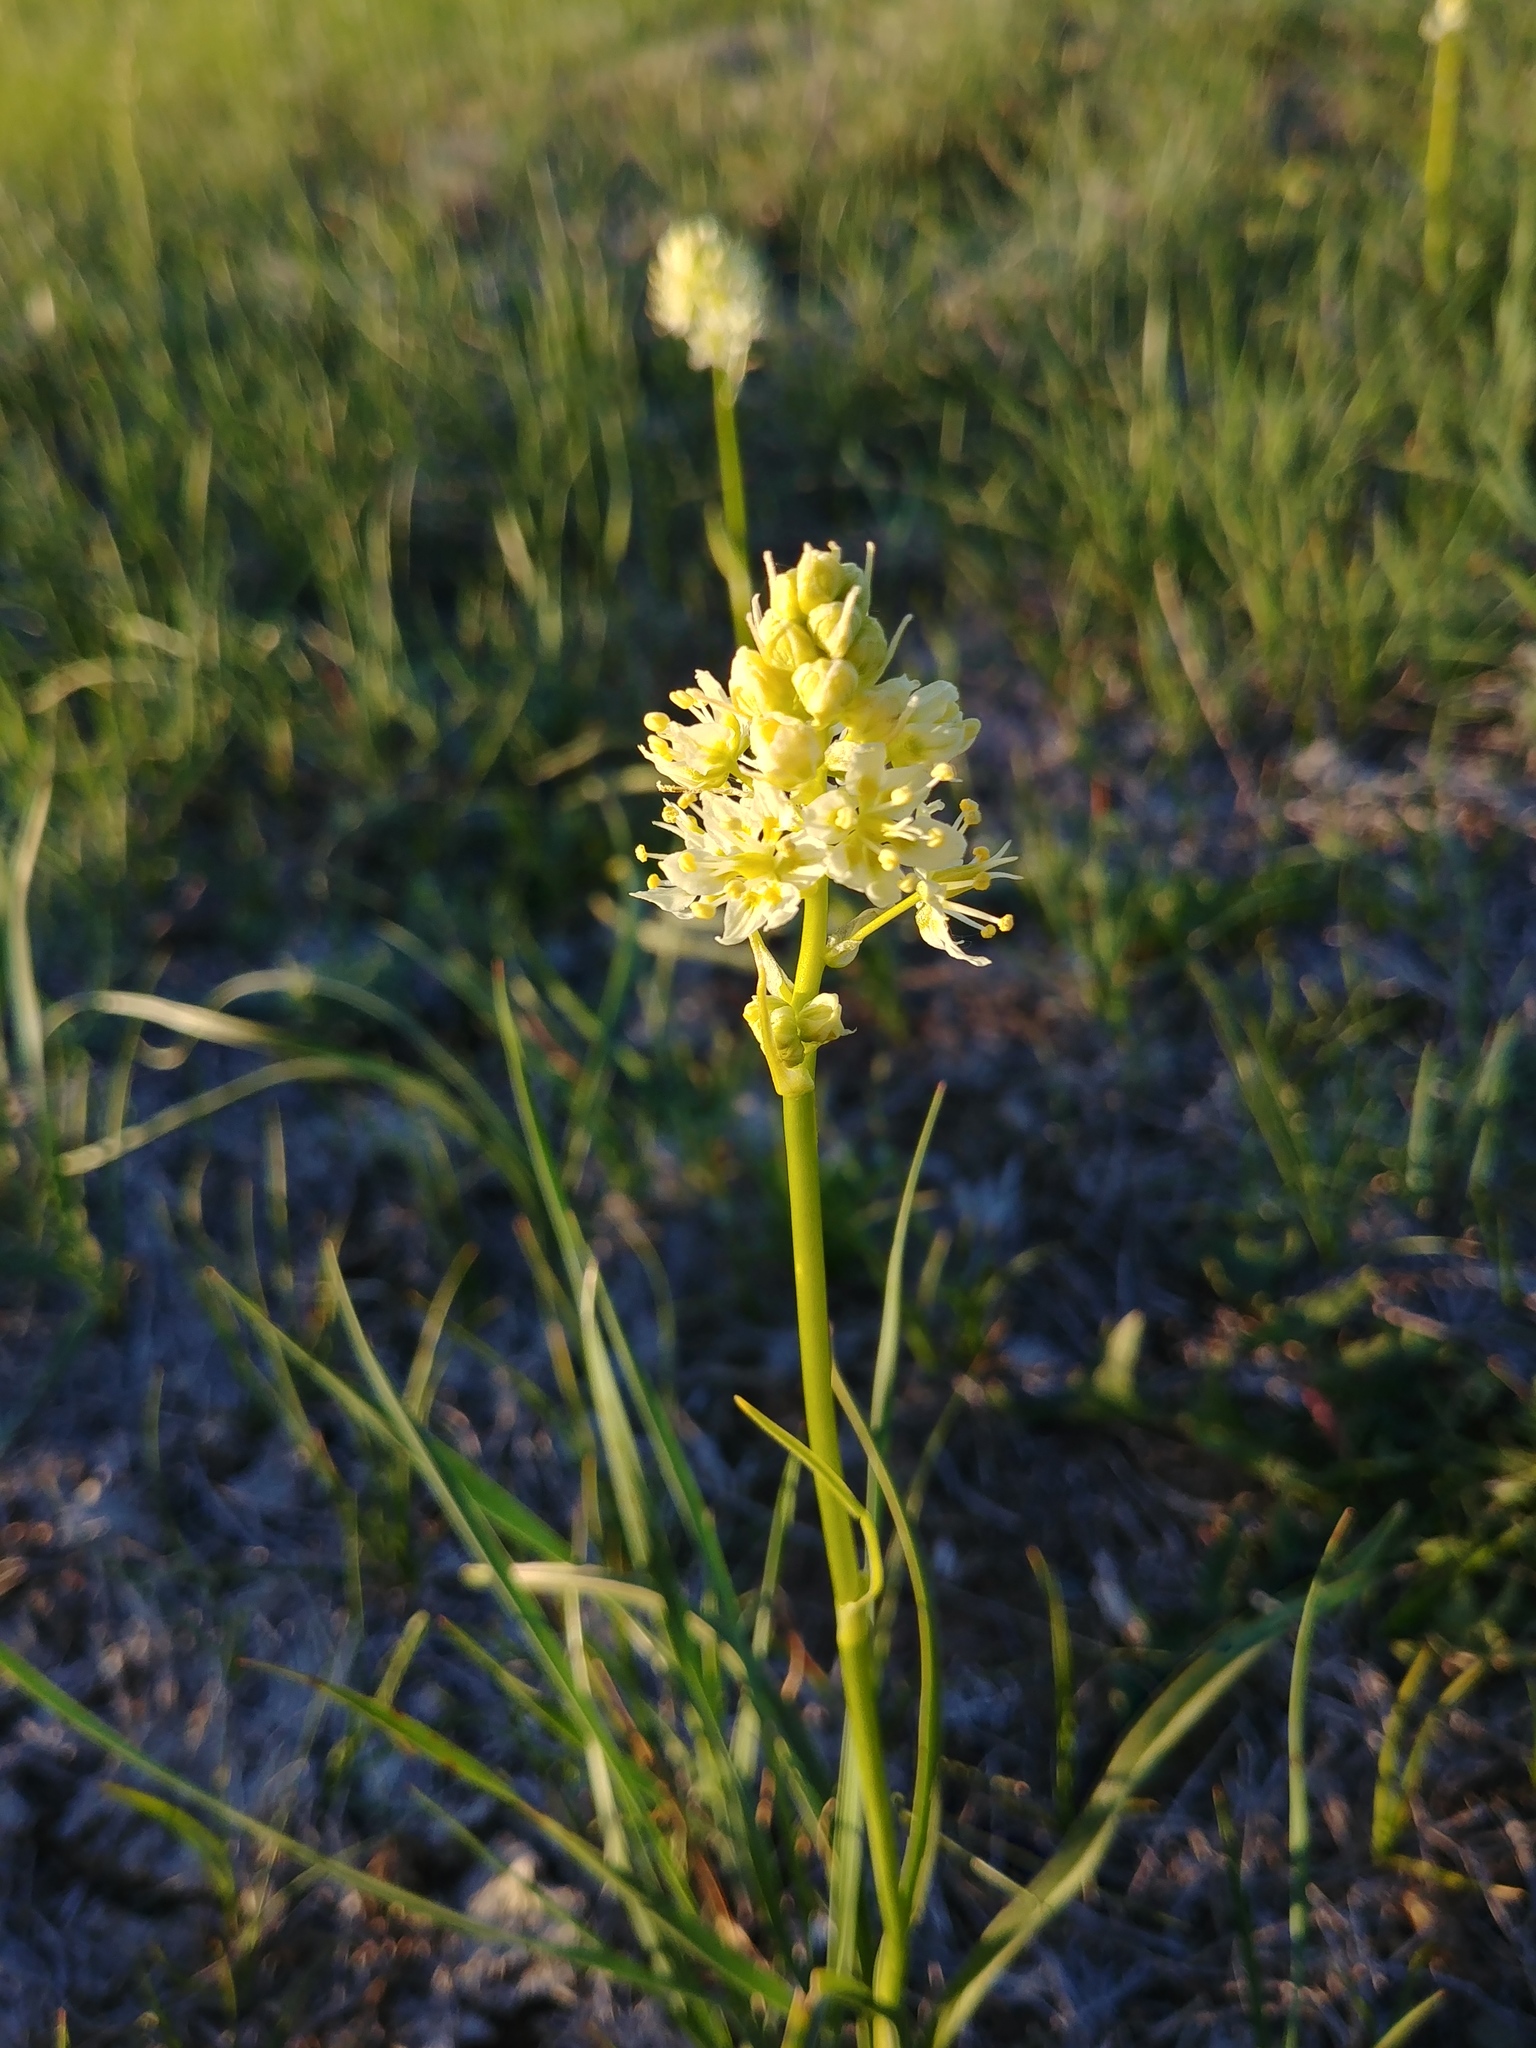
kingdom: Plantae
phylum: Tracheophyta
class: Liliopsida
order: Liliales
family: Melanthiaceae
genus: Toxicoscordion
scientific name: Toxicoscordion venenosum
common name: Meadow death camas
